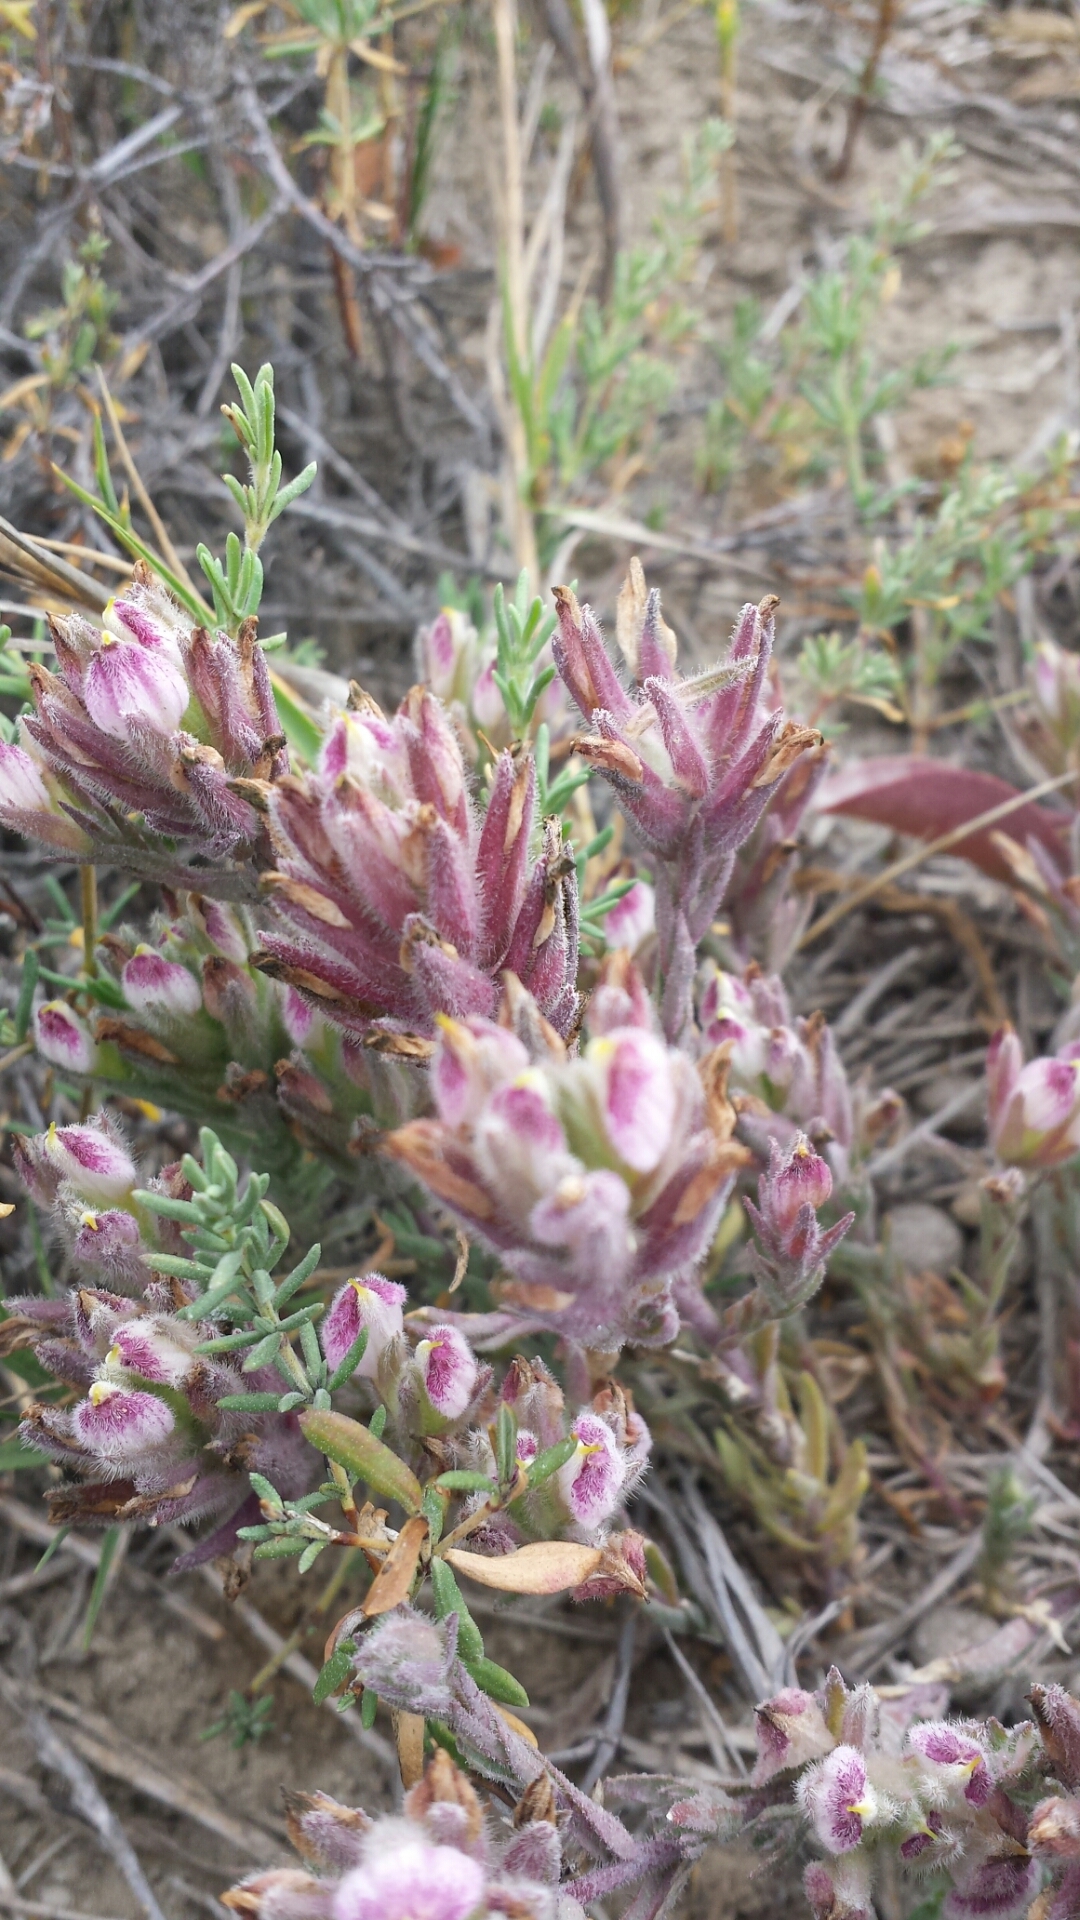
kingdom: Plantae
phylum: Tracheophyta
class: Magnoliopsida
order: Lamiales
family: Orobanchaceae
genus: Chloropyron
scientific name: Chloropyron maritimum
